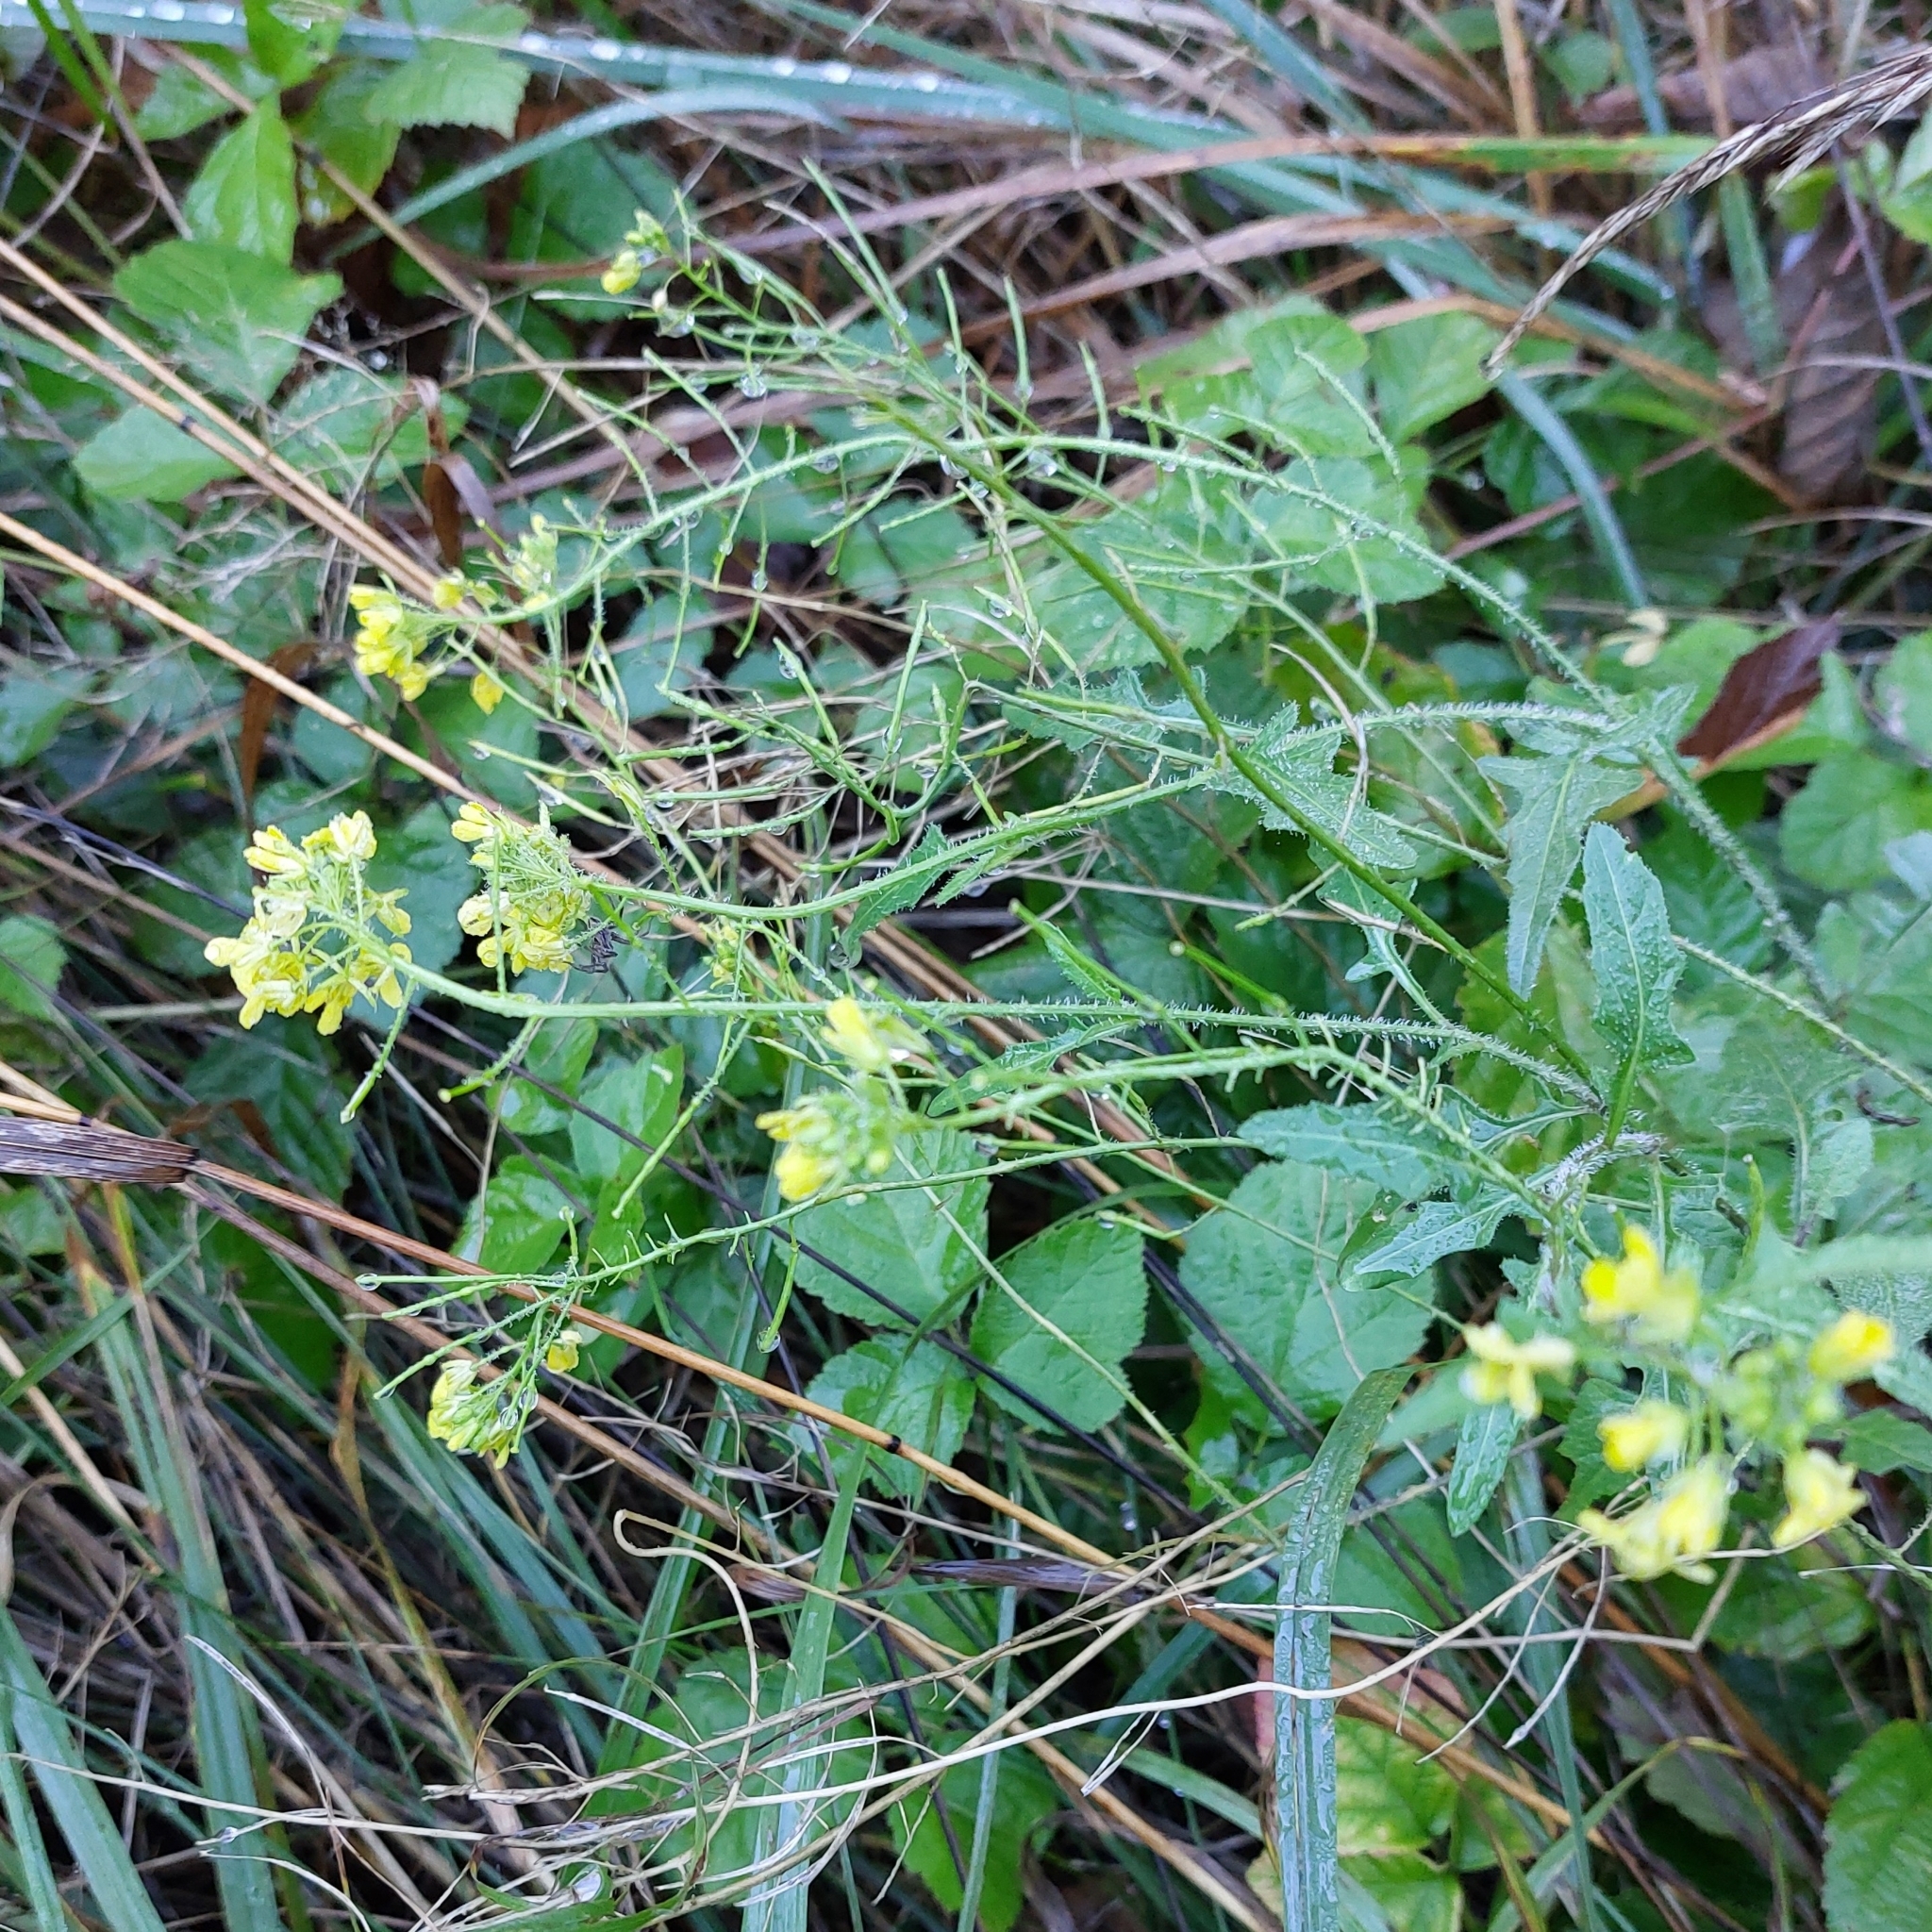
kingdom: Plantae
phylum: Tracheophyta
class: Magnoliopsida
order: Brassicales
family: Brassicaceae
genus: Sisymbrium
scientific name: Sisymbrium loeselii
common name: False london-rocket
